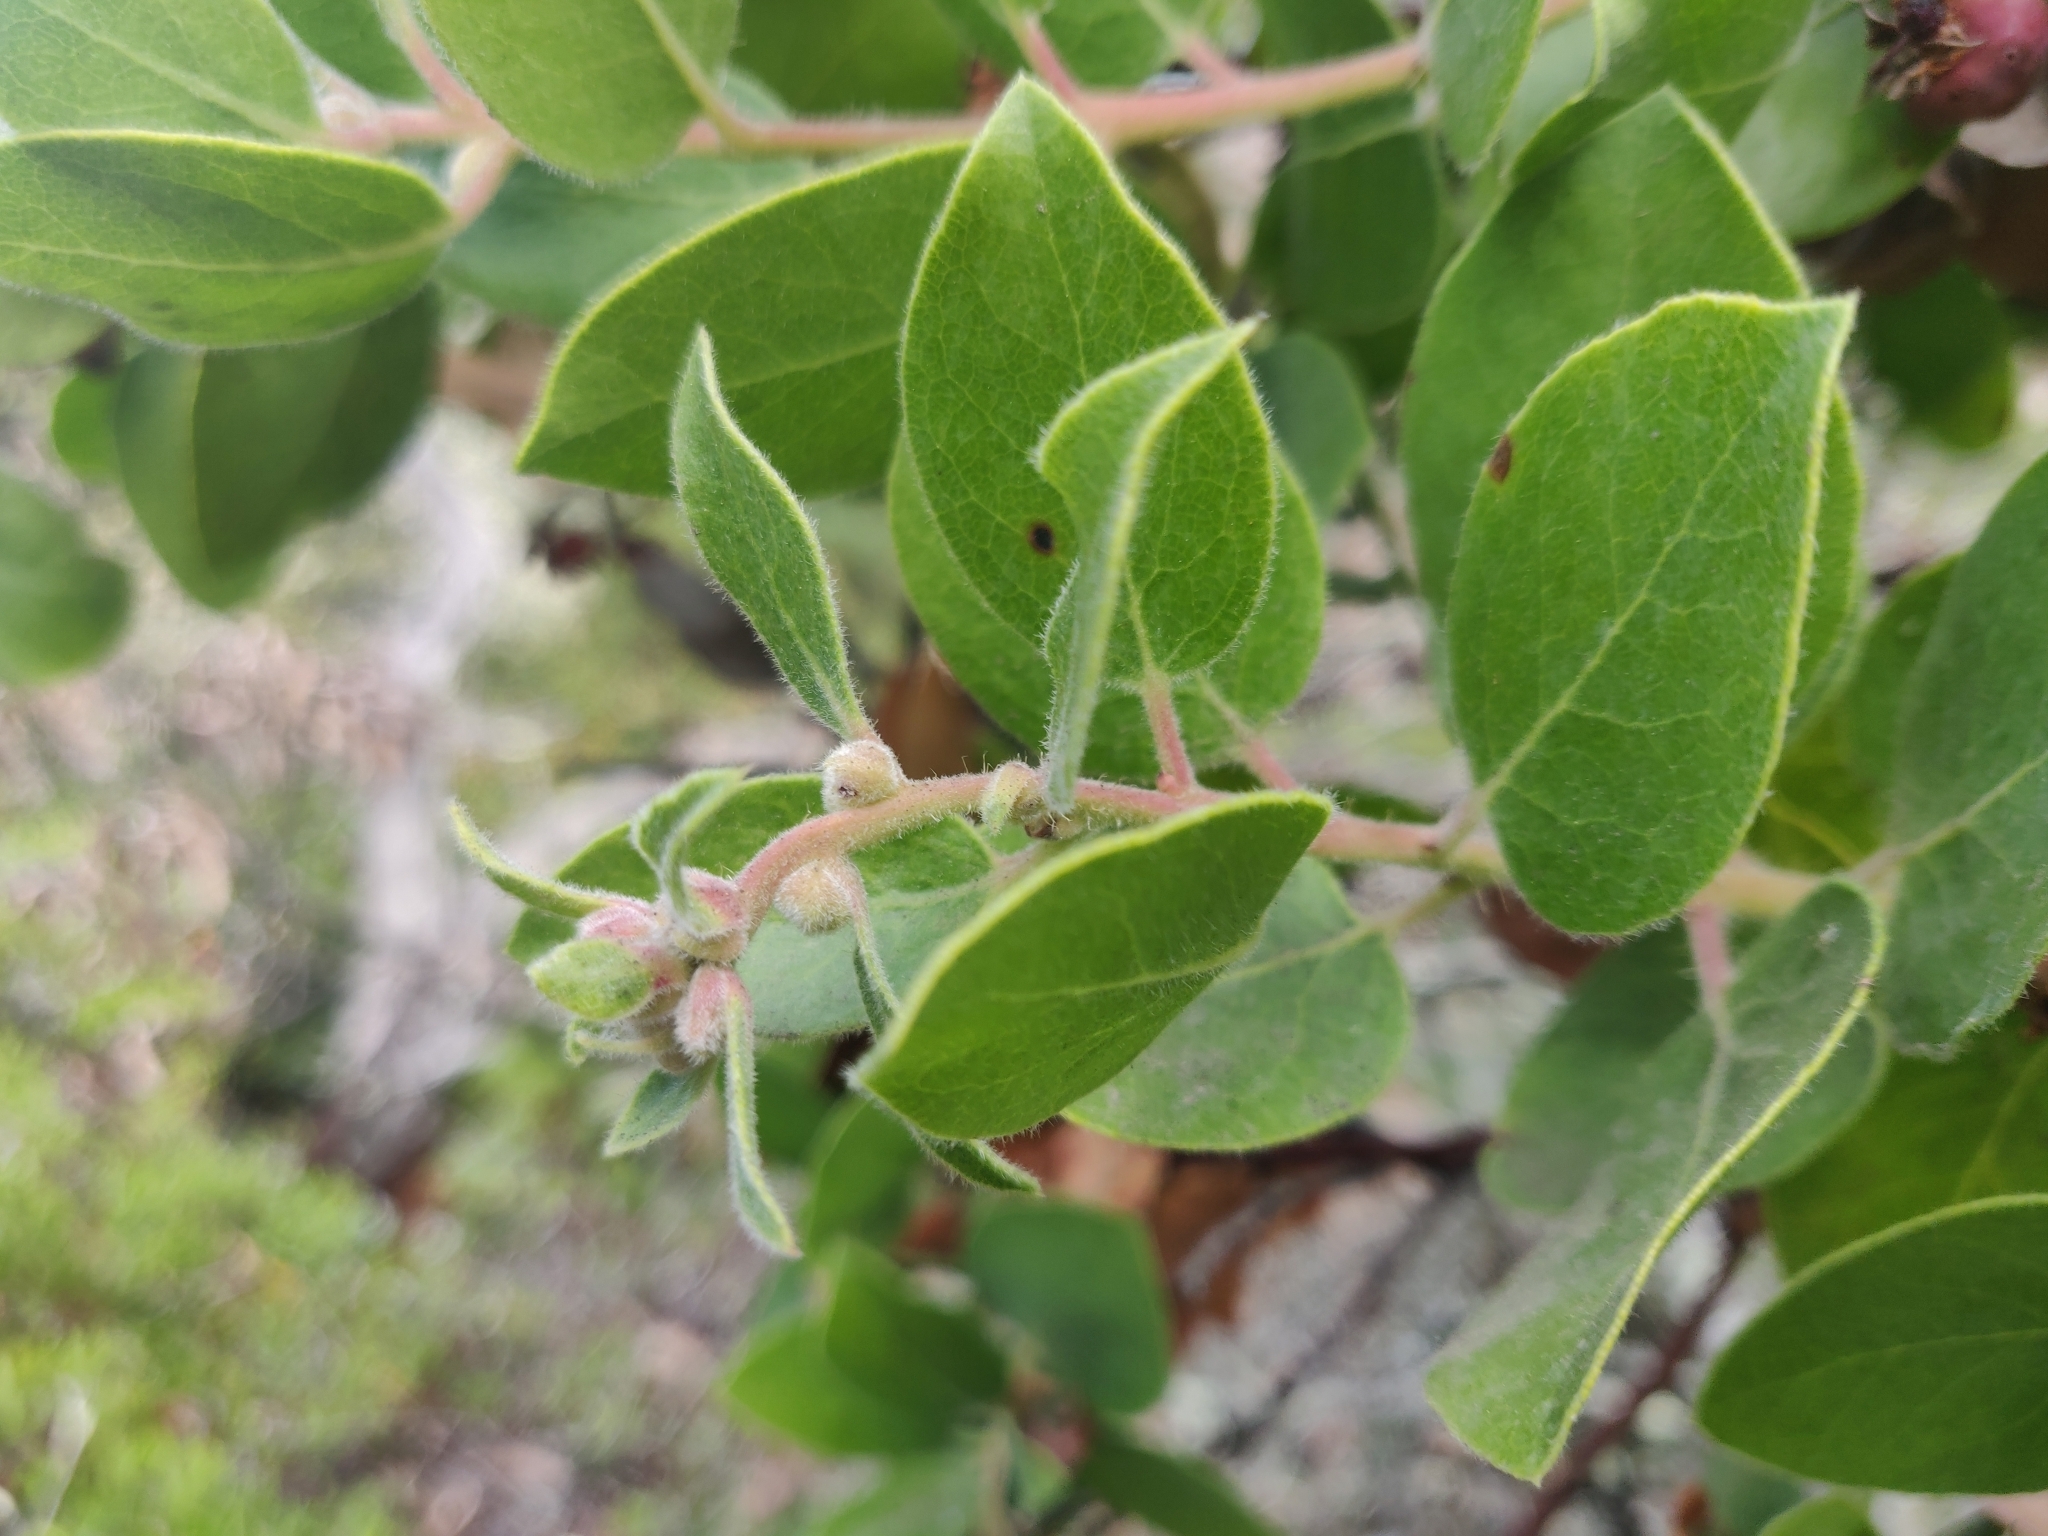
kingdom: Plantae
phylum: Tracheophyta
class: Magnoliopsida
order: Ericales
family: Ericaceae
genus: Arctostaphylos
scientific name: Arctostaphylos crustacea
